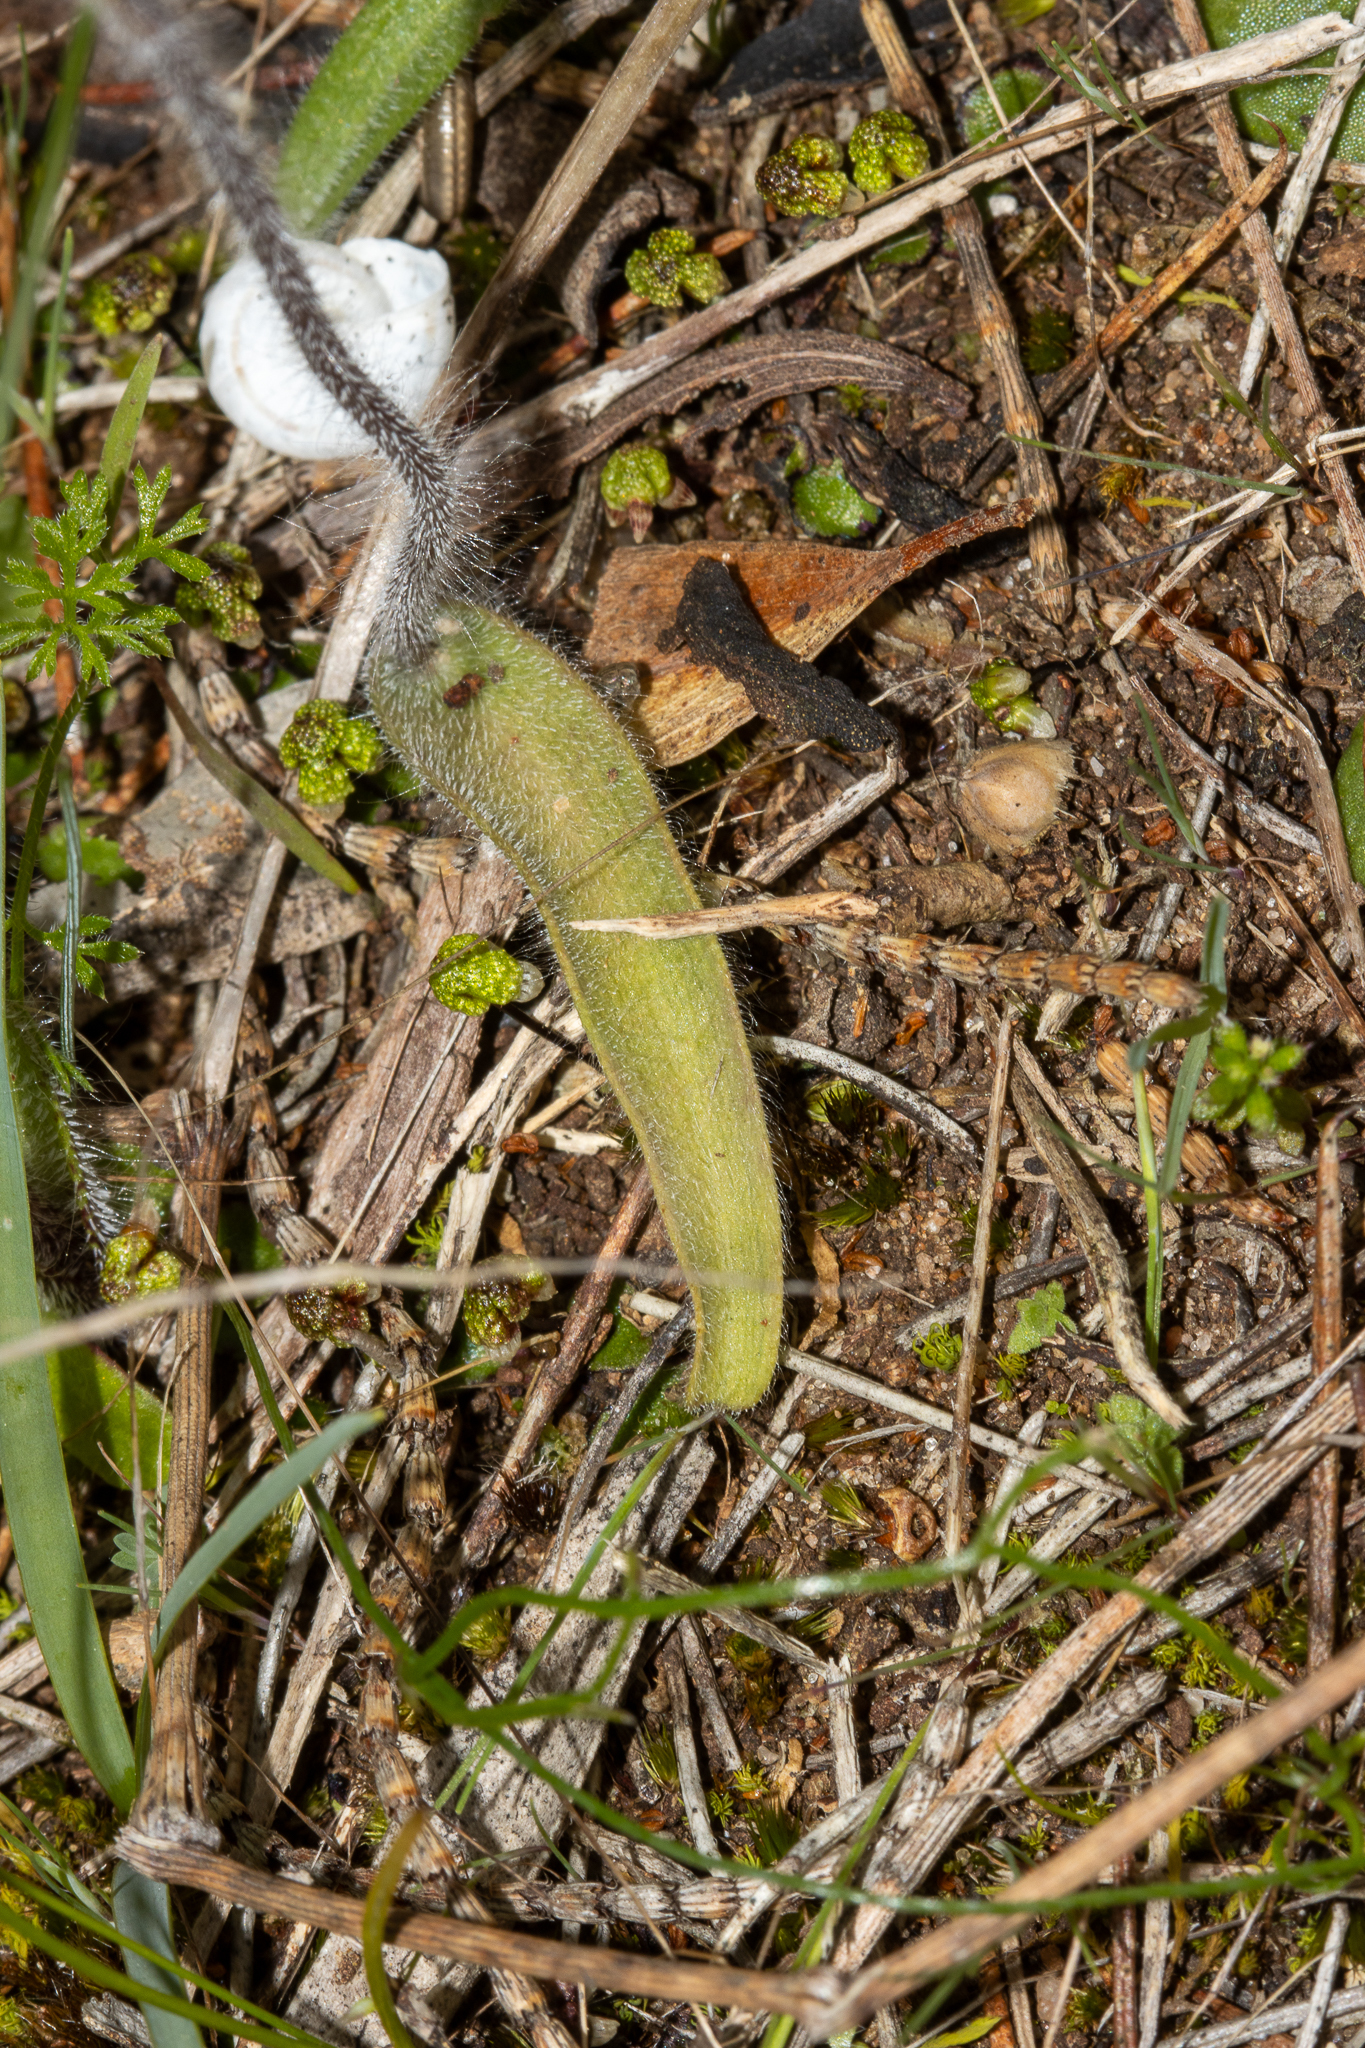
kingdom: Plantae
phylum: Tracheophyta
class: Liliopsida
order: Asparagales
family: Orchidaceae
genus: Caladenia
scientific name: Caladenia conferta
